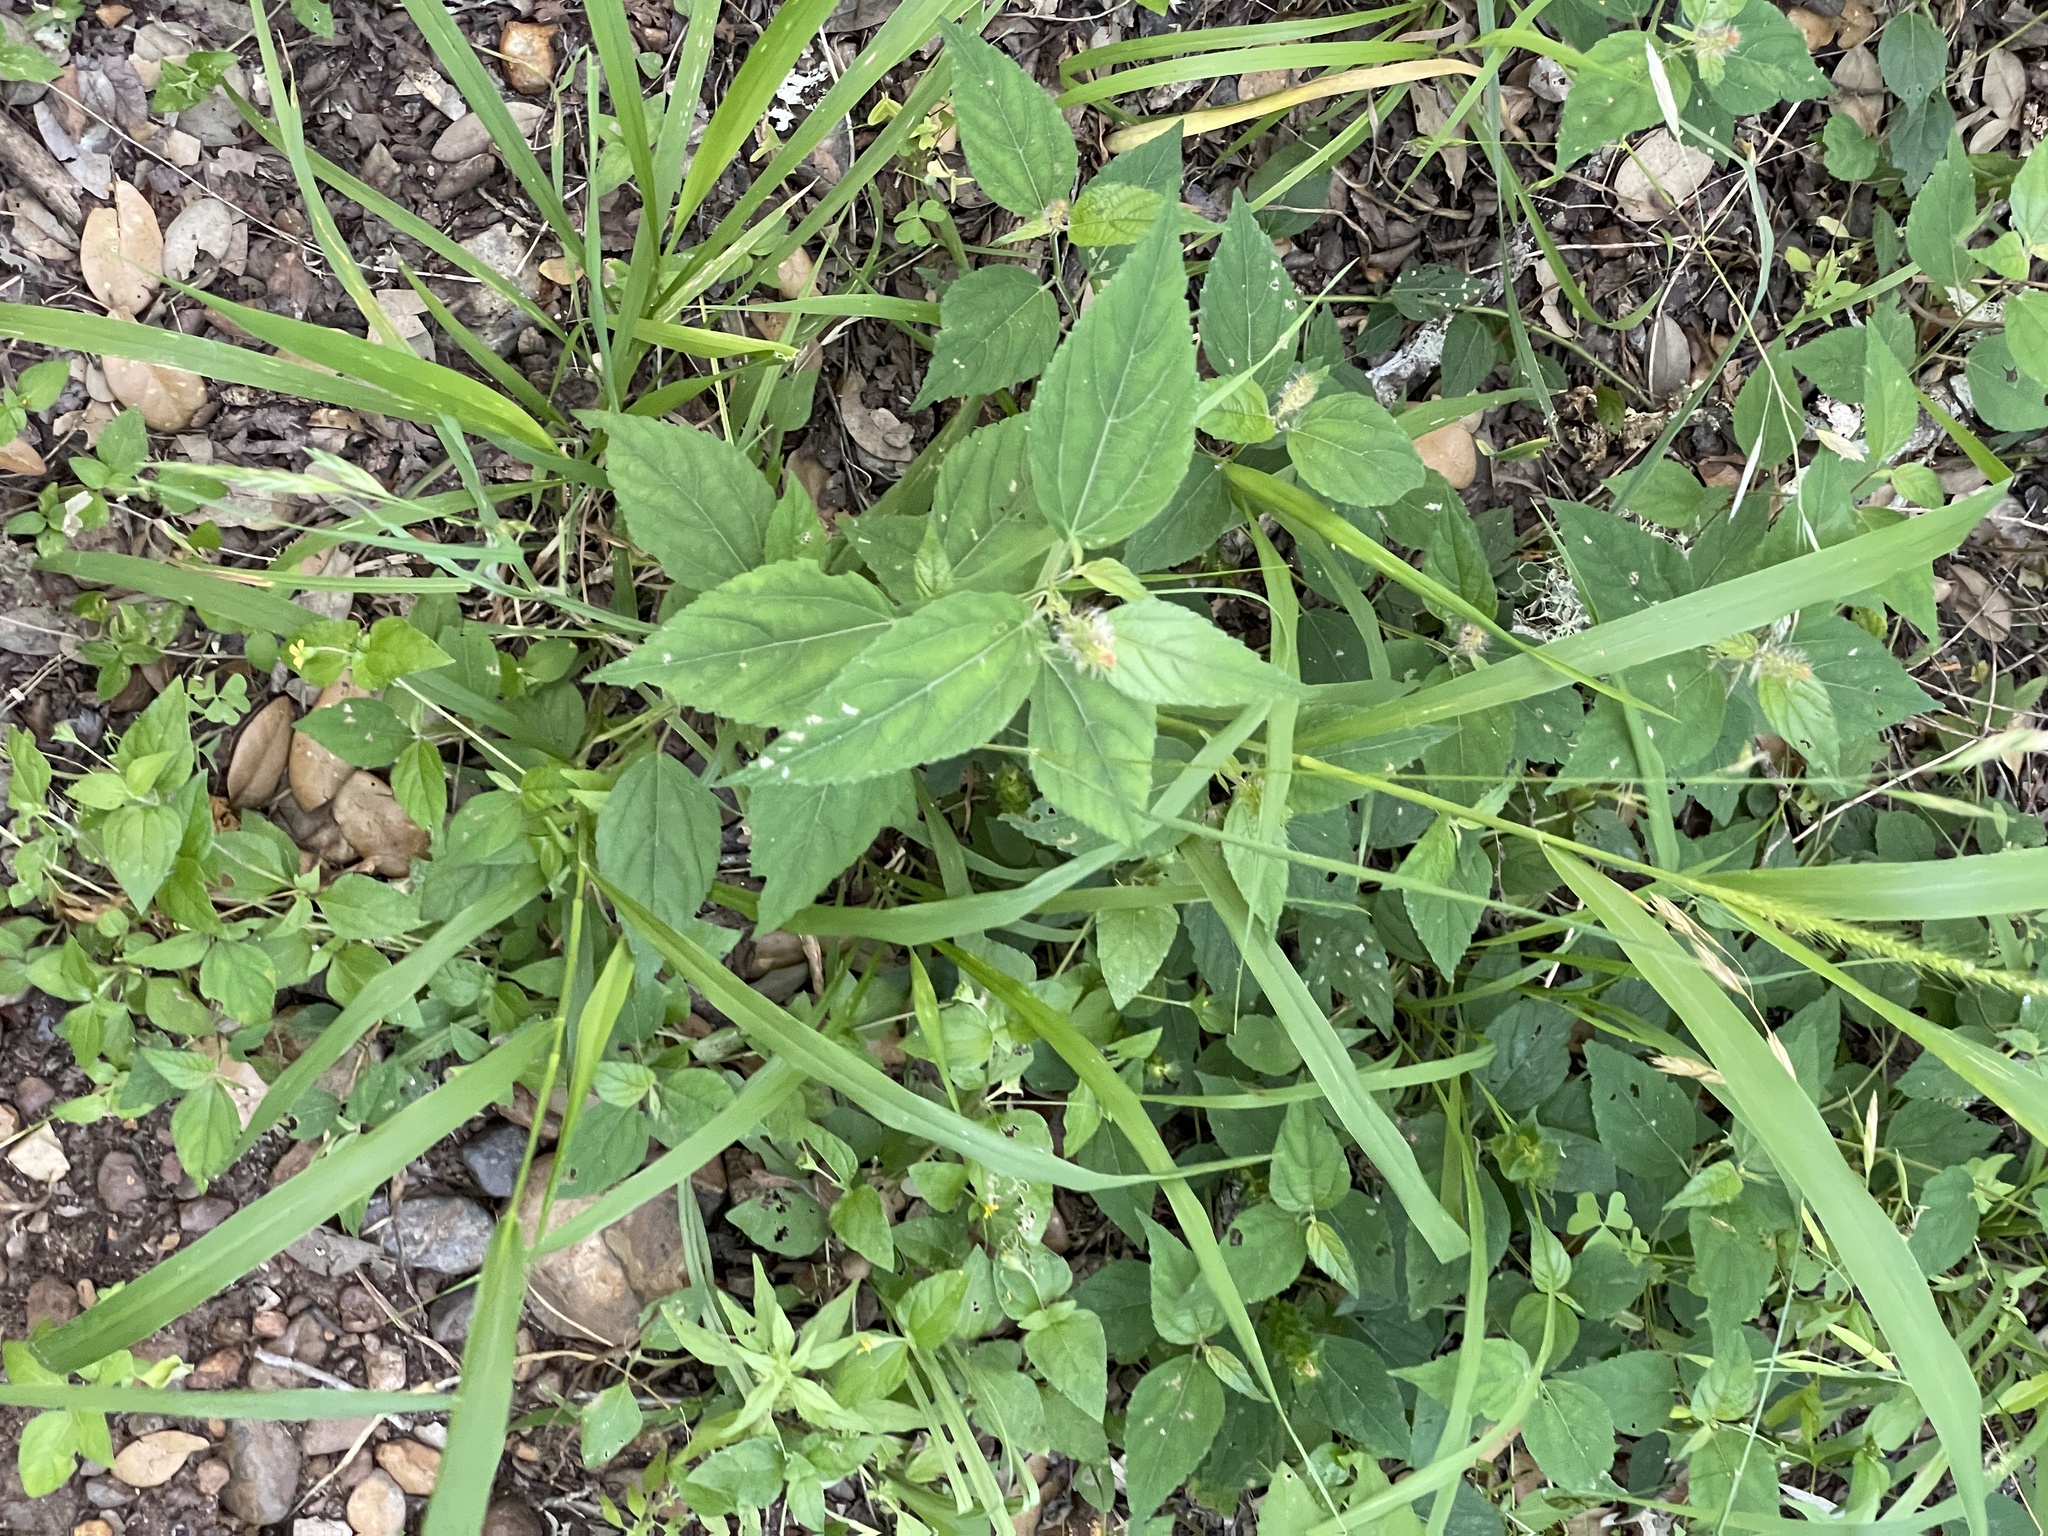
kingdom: Plantae
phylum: Tracheophyta
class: Magnoliopsida
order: Malpighiales
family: Euphorbiaceae
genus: Acalypha
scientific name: Acalypha phleoides
